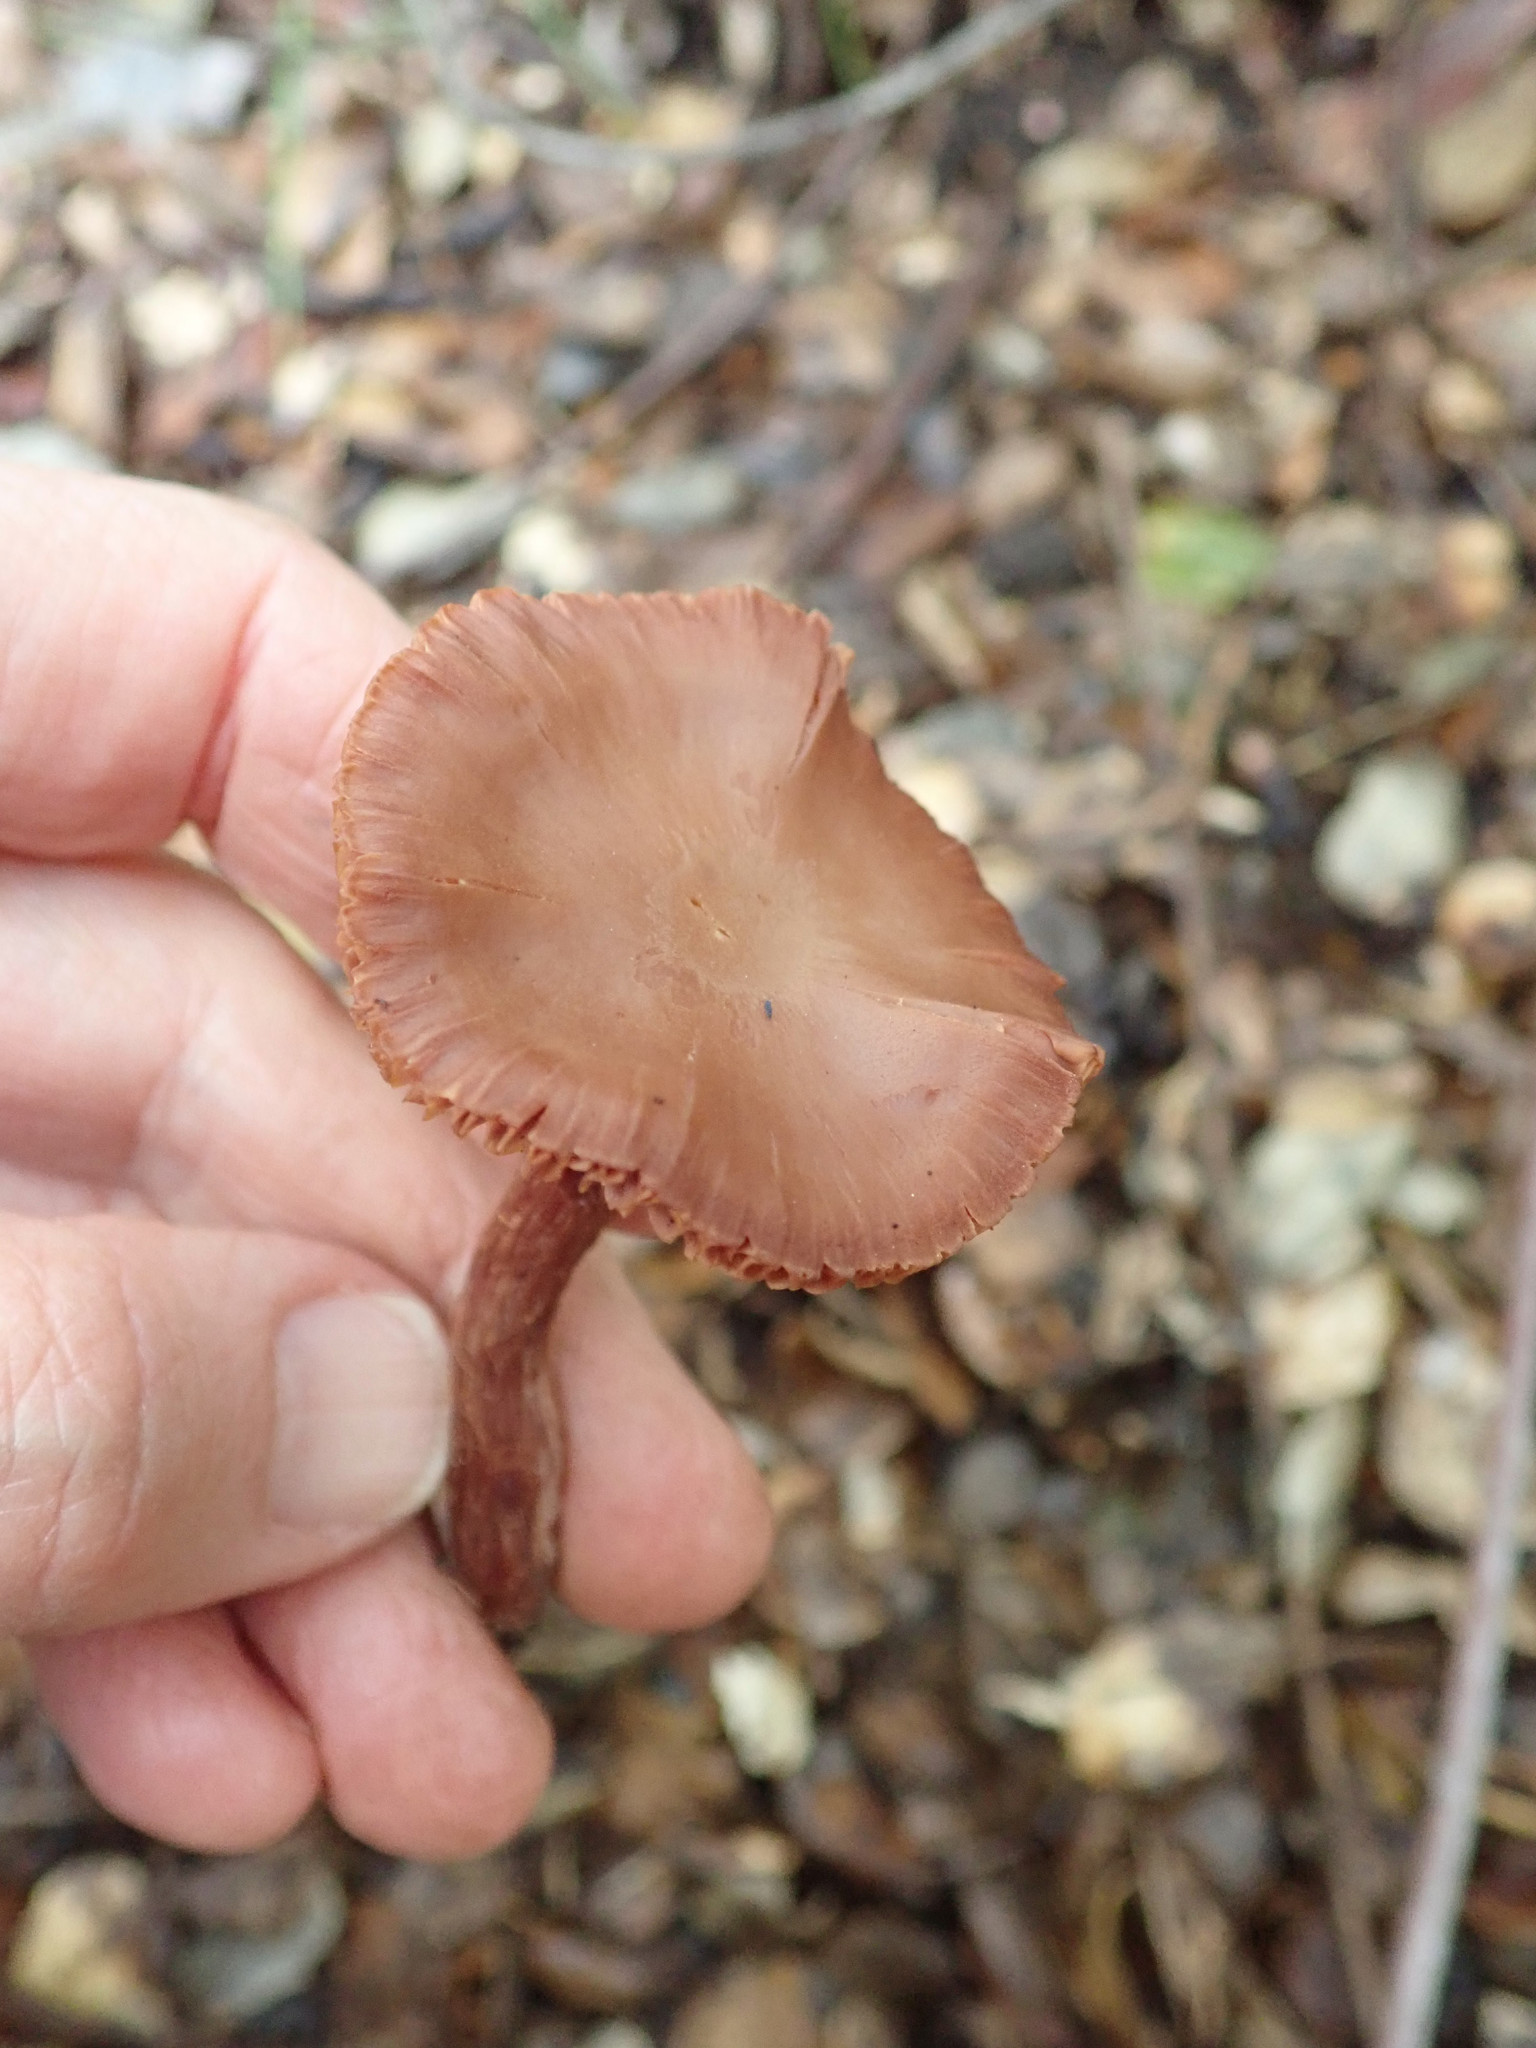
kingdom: Fungi
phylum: Basidiomycota
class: Agaricomycetes
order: Agaricales
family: Hydnangiaceae
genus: Laccaria
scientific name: Laccaria amethysteo-occidentalis
